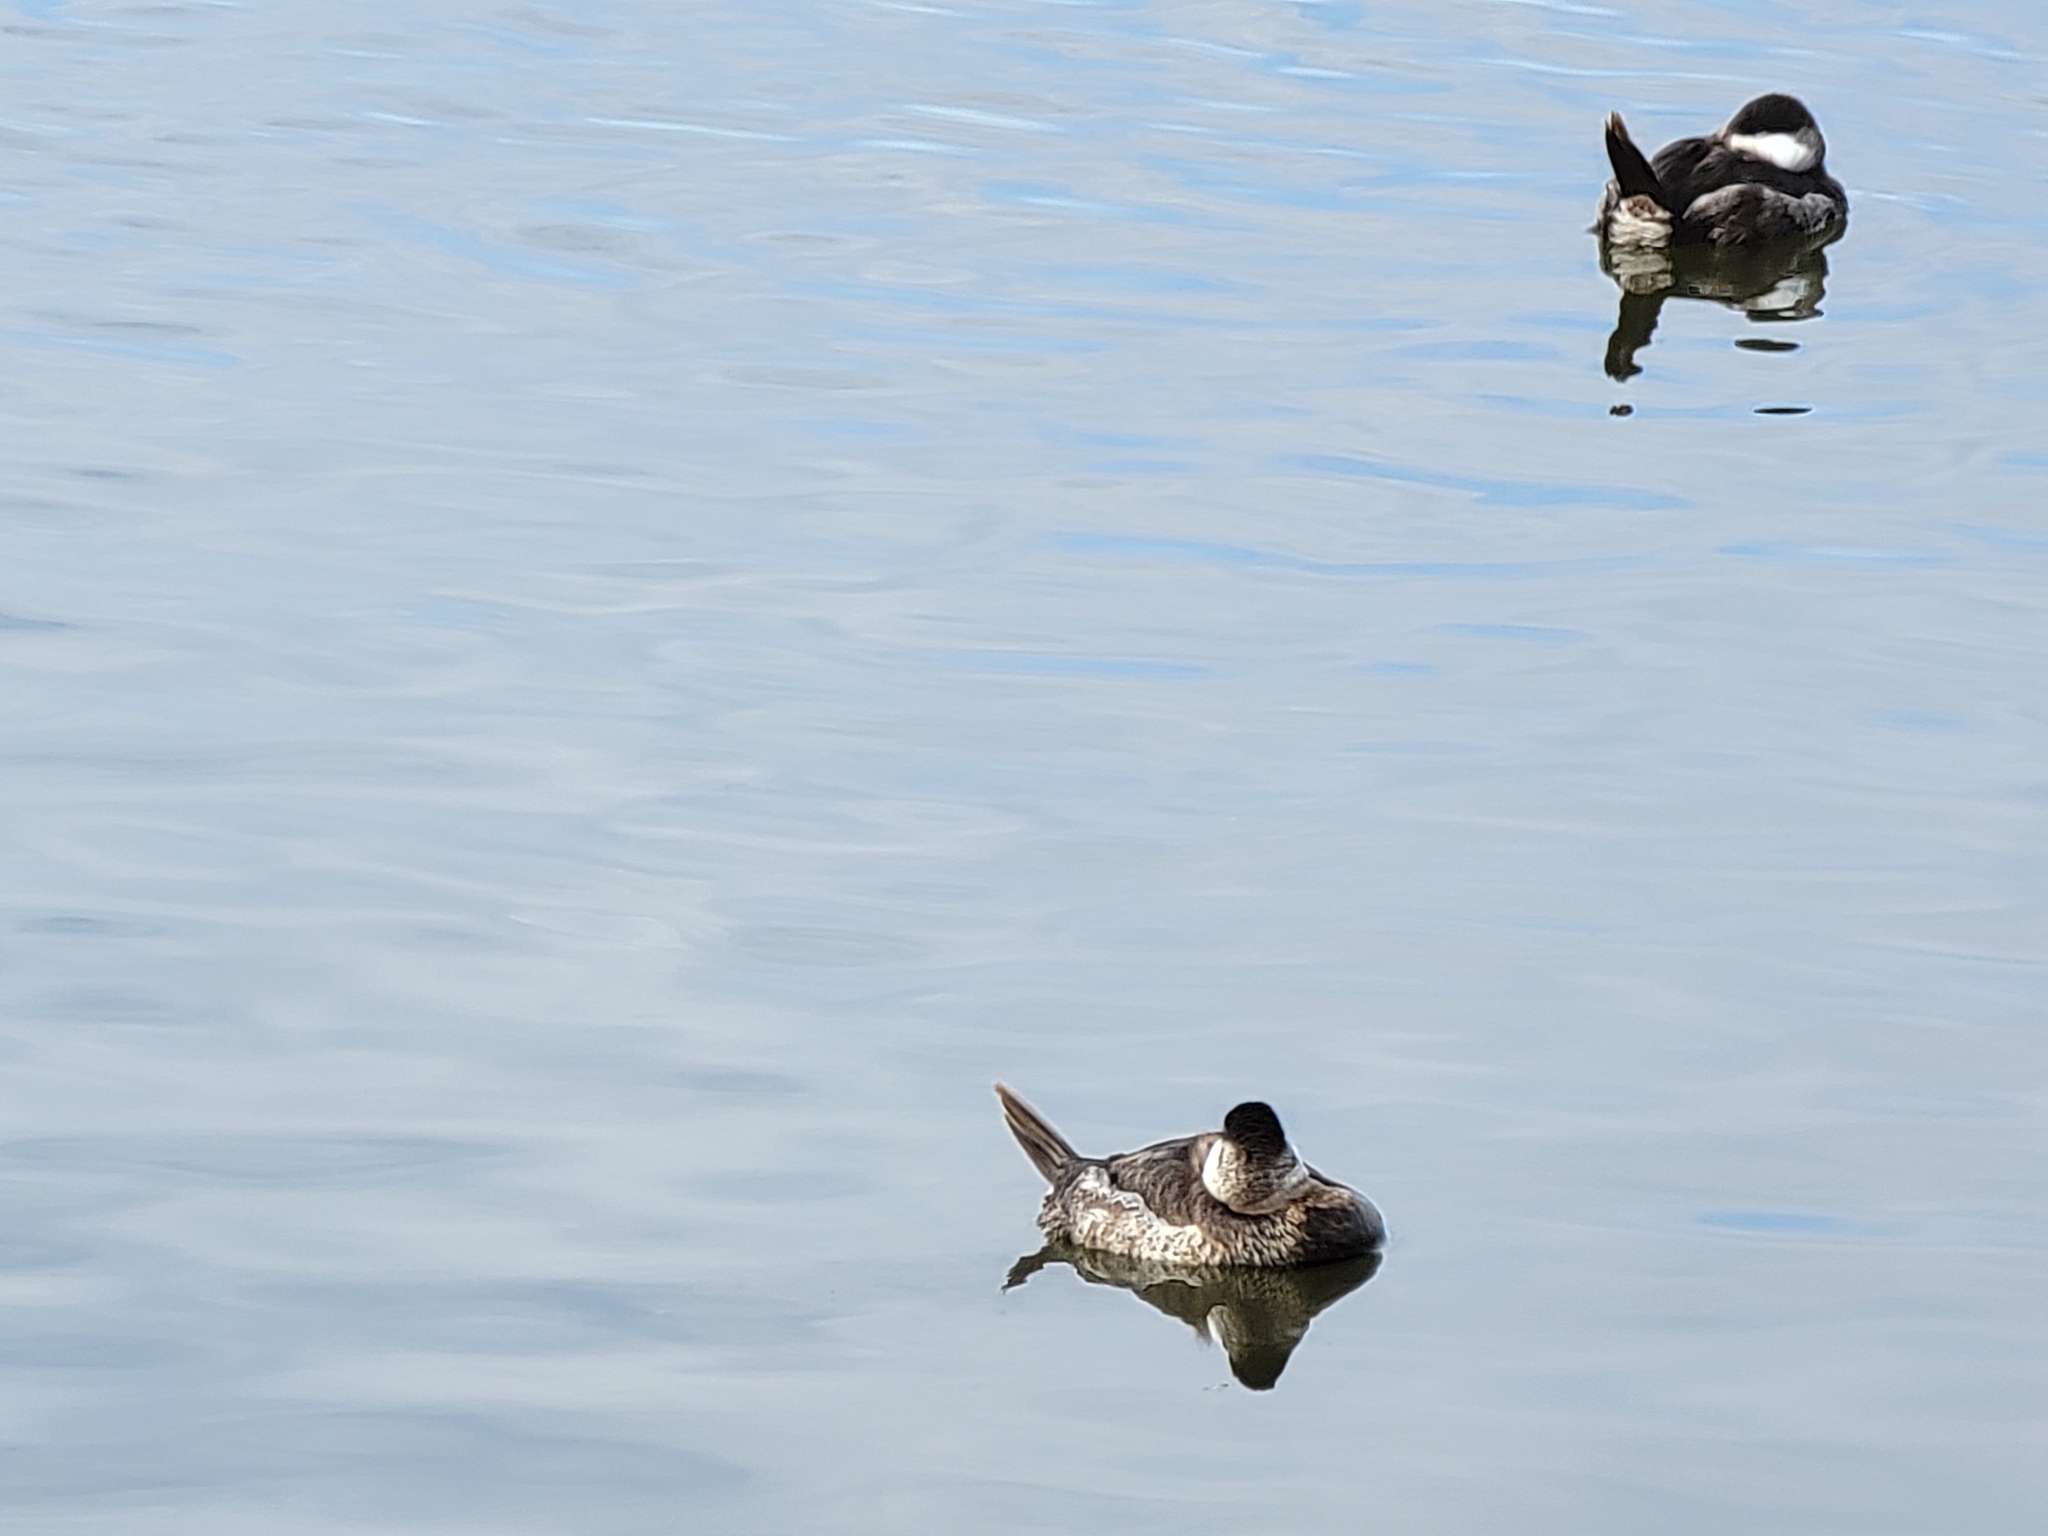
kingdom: Animalia
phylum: Chordata
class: Aves
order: Anseriformes
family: Anatidae
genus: Oxyura
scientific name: Oxyura jamaicensis
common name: Ruddy duck
